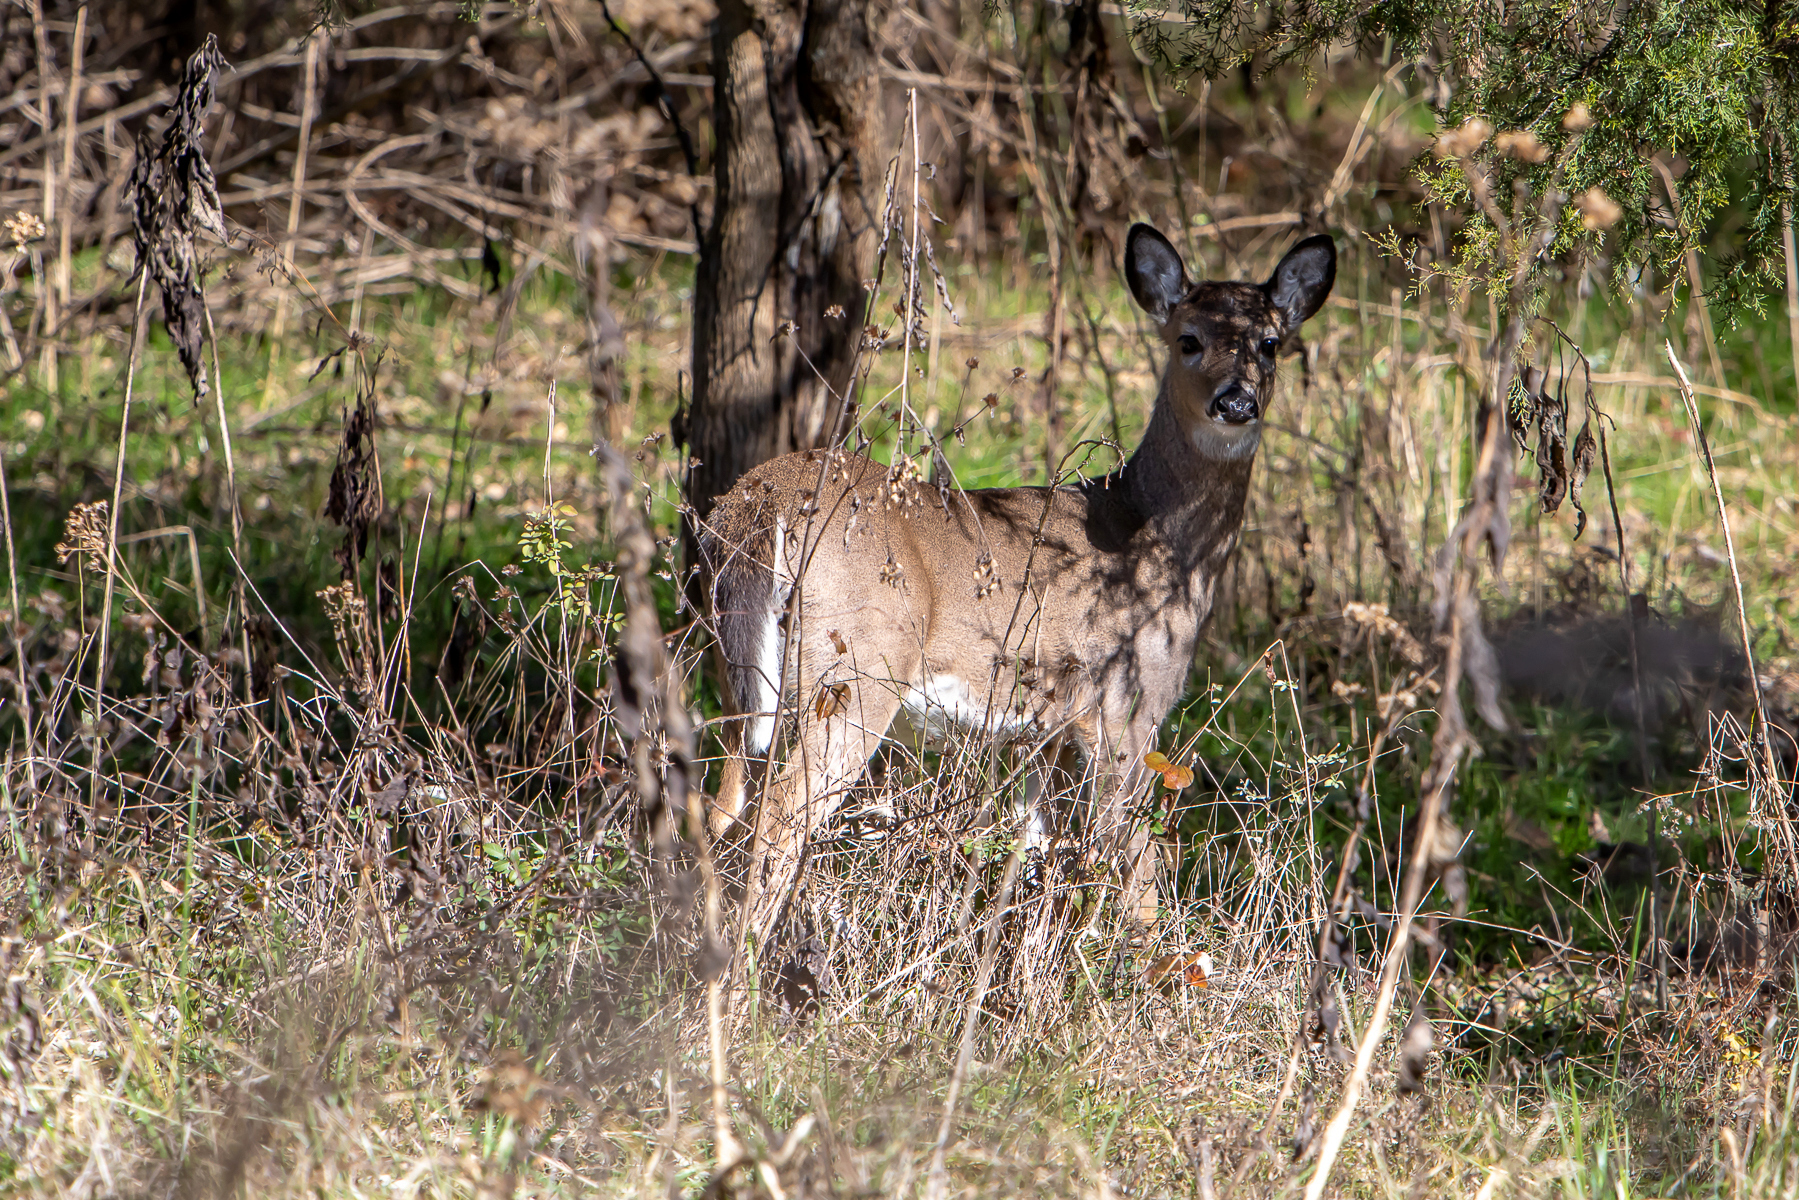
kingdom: Animalia
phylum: Chordata
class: Mammalia
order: Artiodactyla
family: Cervidae
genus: Odocoileus
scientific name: Odocoileus virginianus
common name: White-tailed deer
